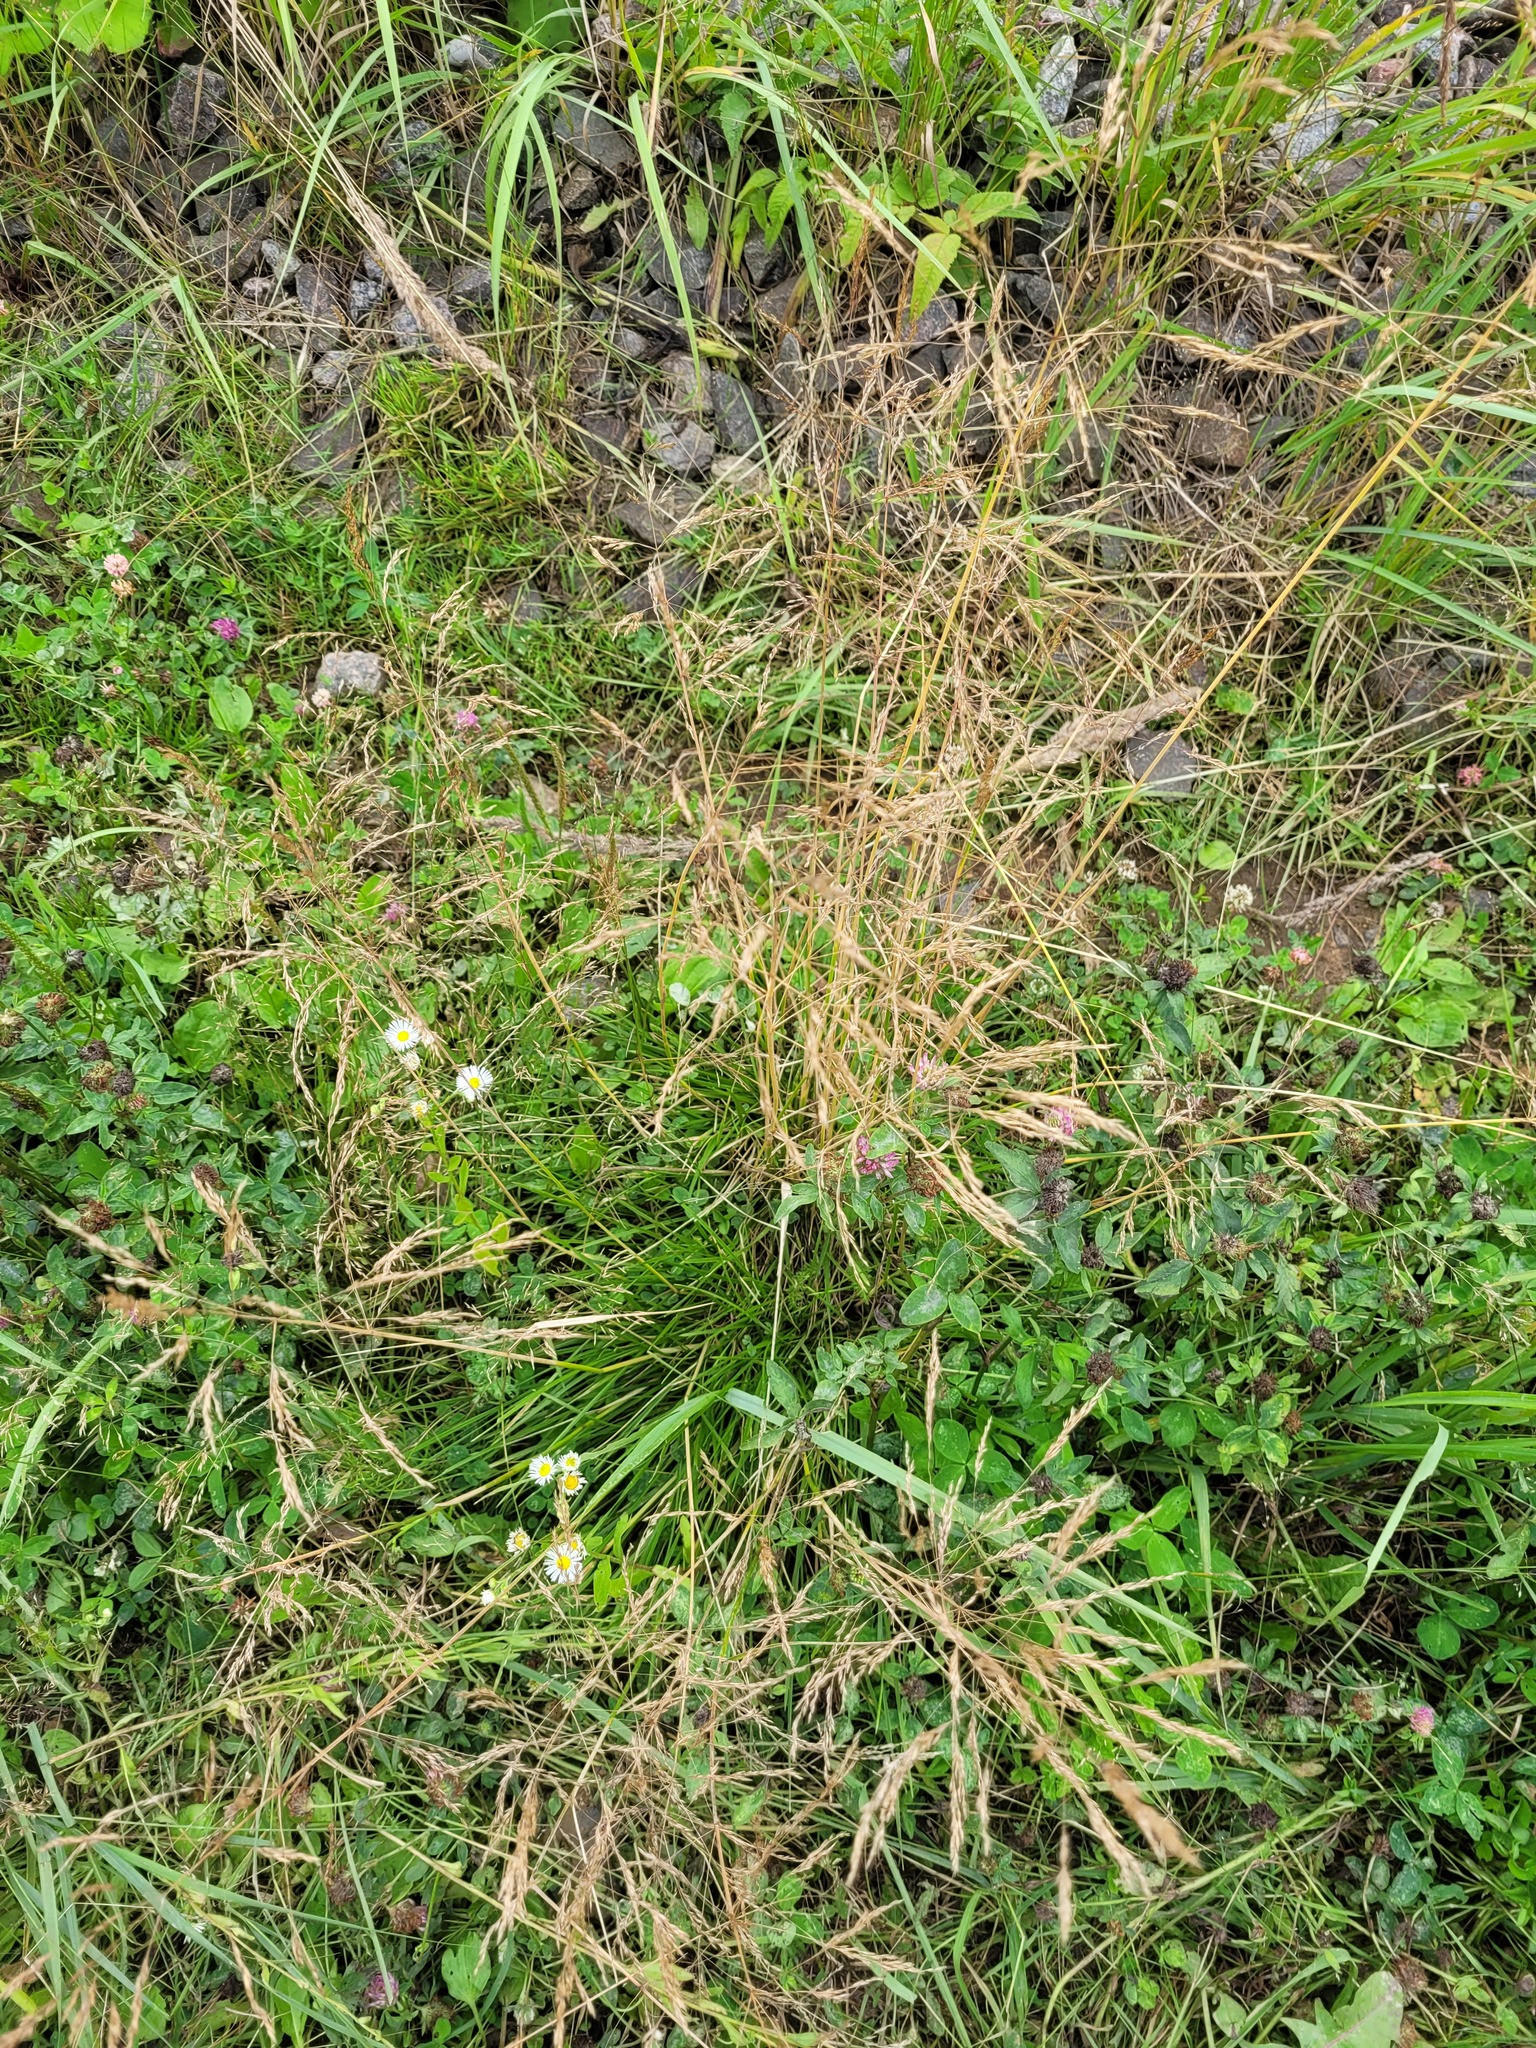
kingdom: Plantae
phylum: Tracheophyta
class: Liliopsida
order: Poales
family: Poaceae
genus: Deschampsia
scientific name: Deschampsia cespitosa
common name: Tufted hair-grass
